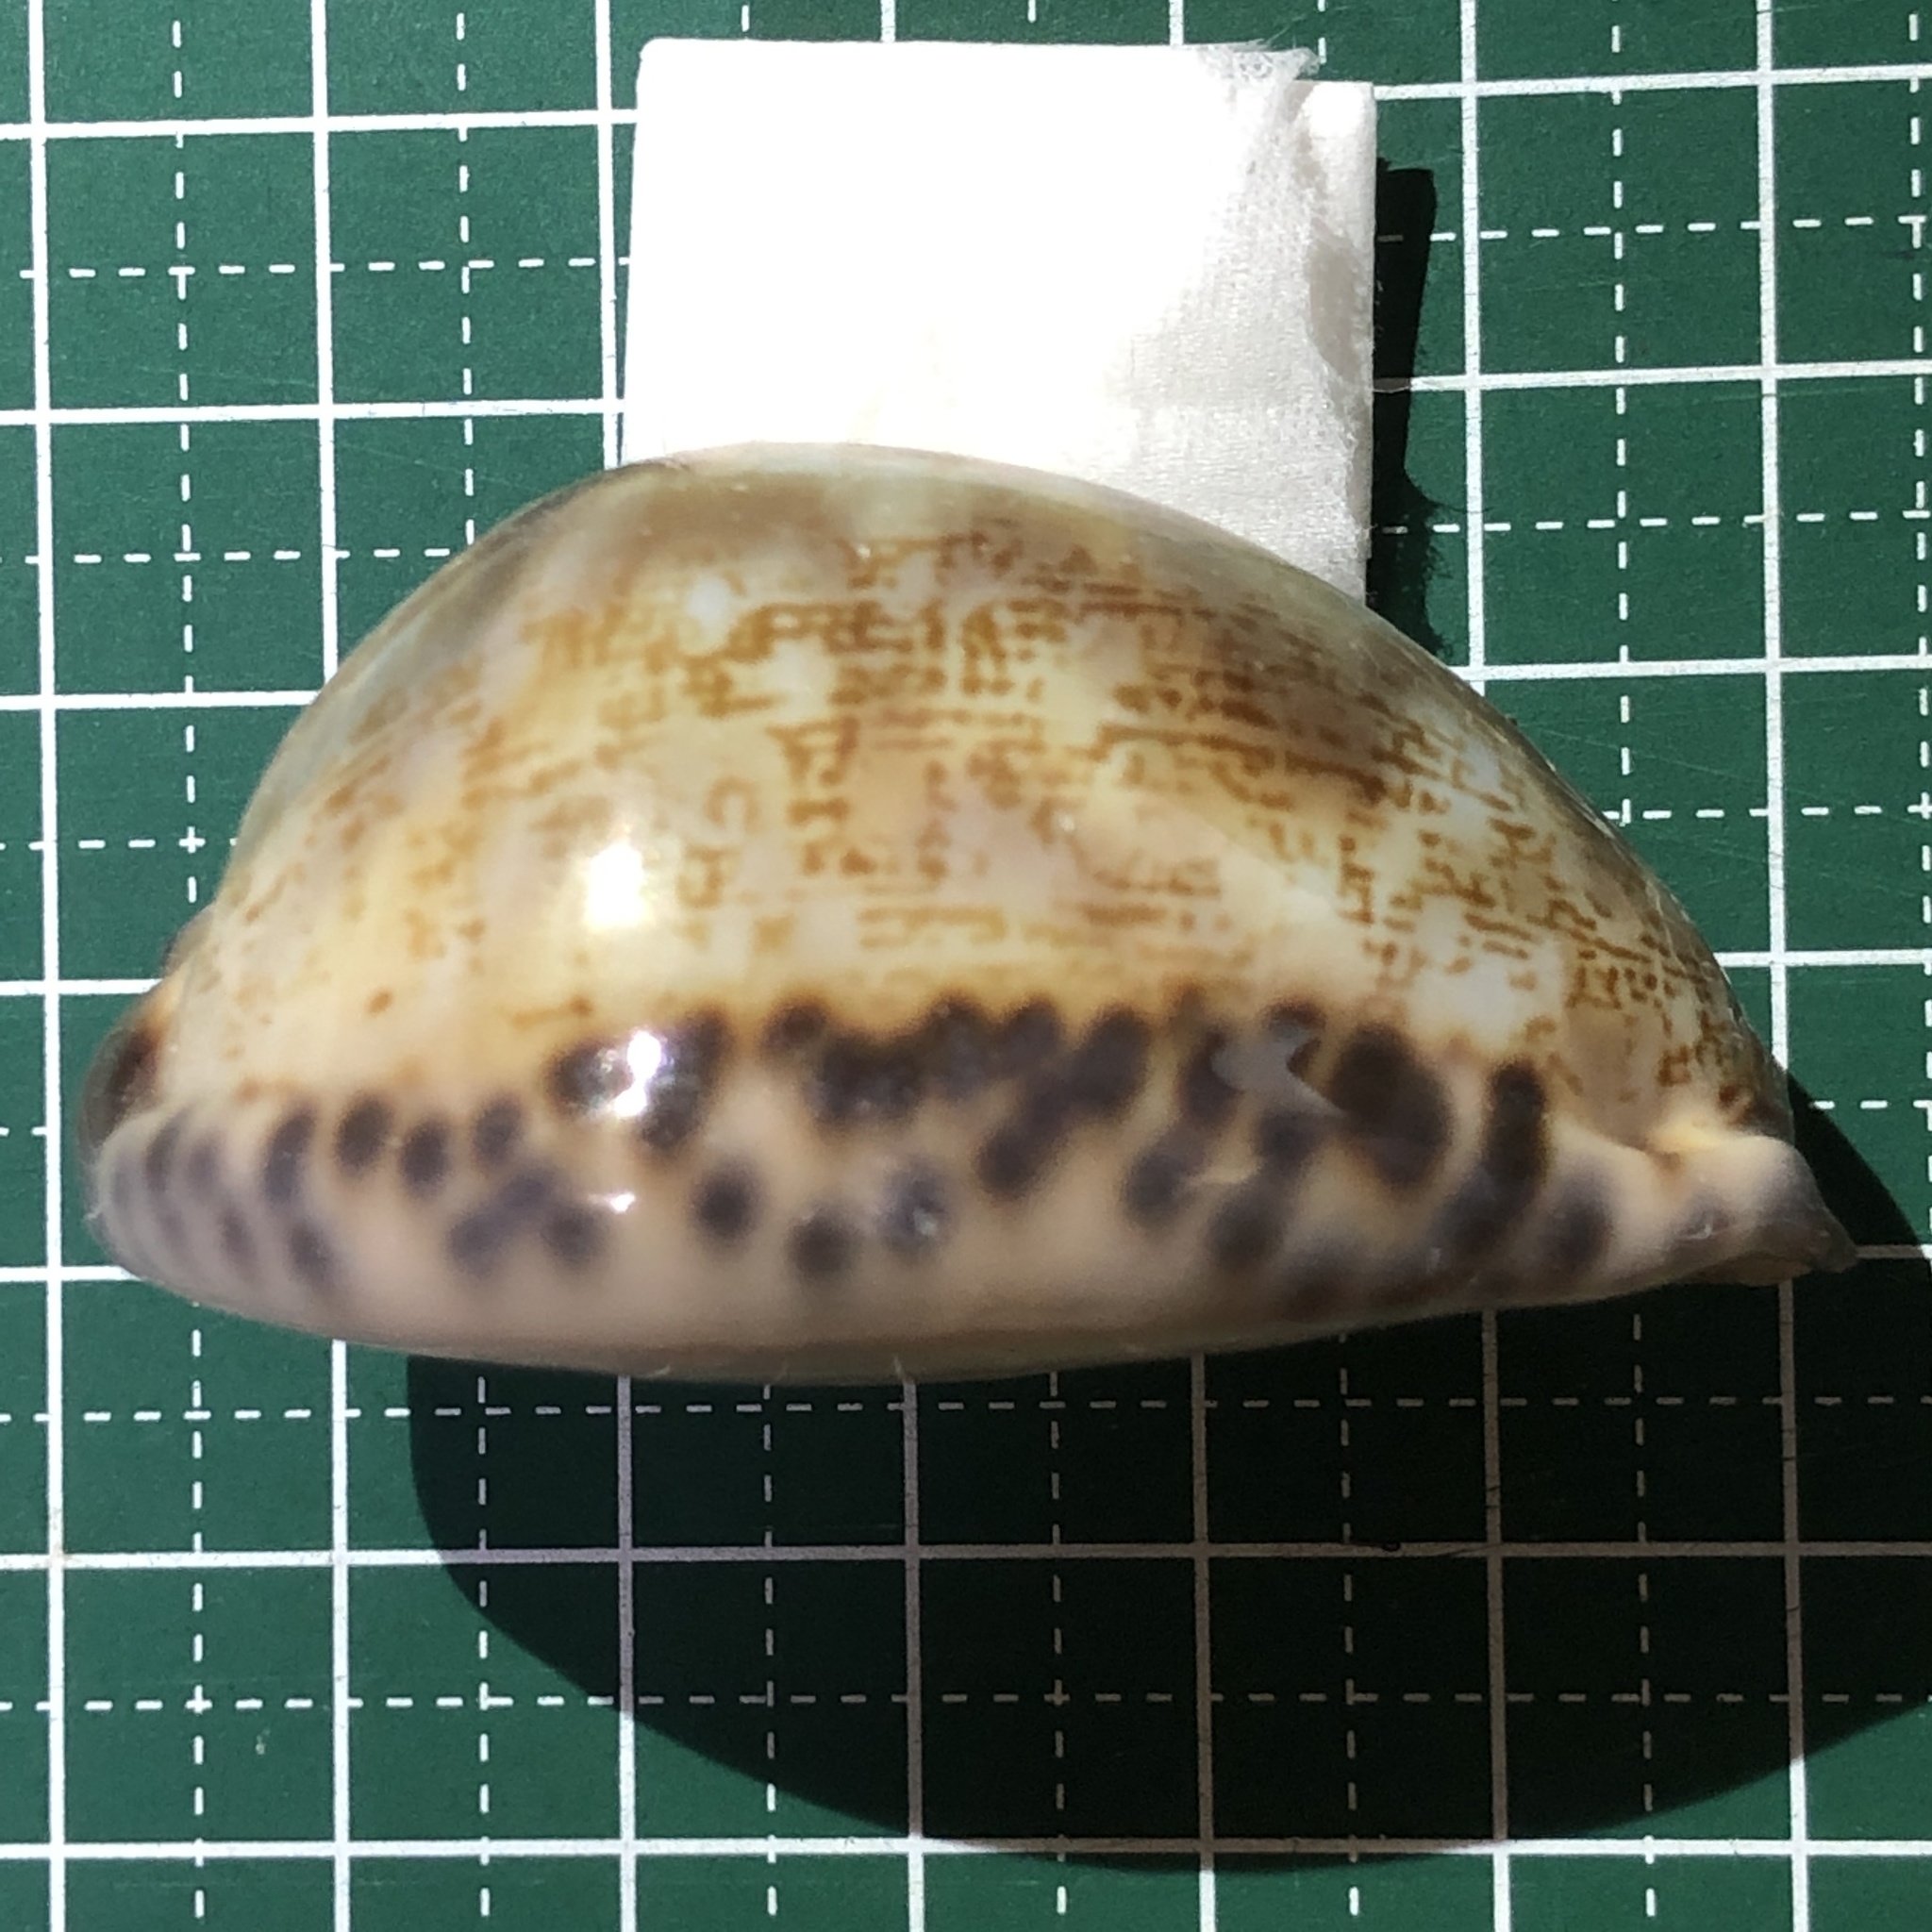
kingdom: Animalia
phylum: Mollusca
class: Gastropoda
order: Littorinimorpha
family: Cypraeidae
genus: Mauritia
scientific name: Mauritia arabica
